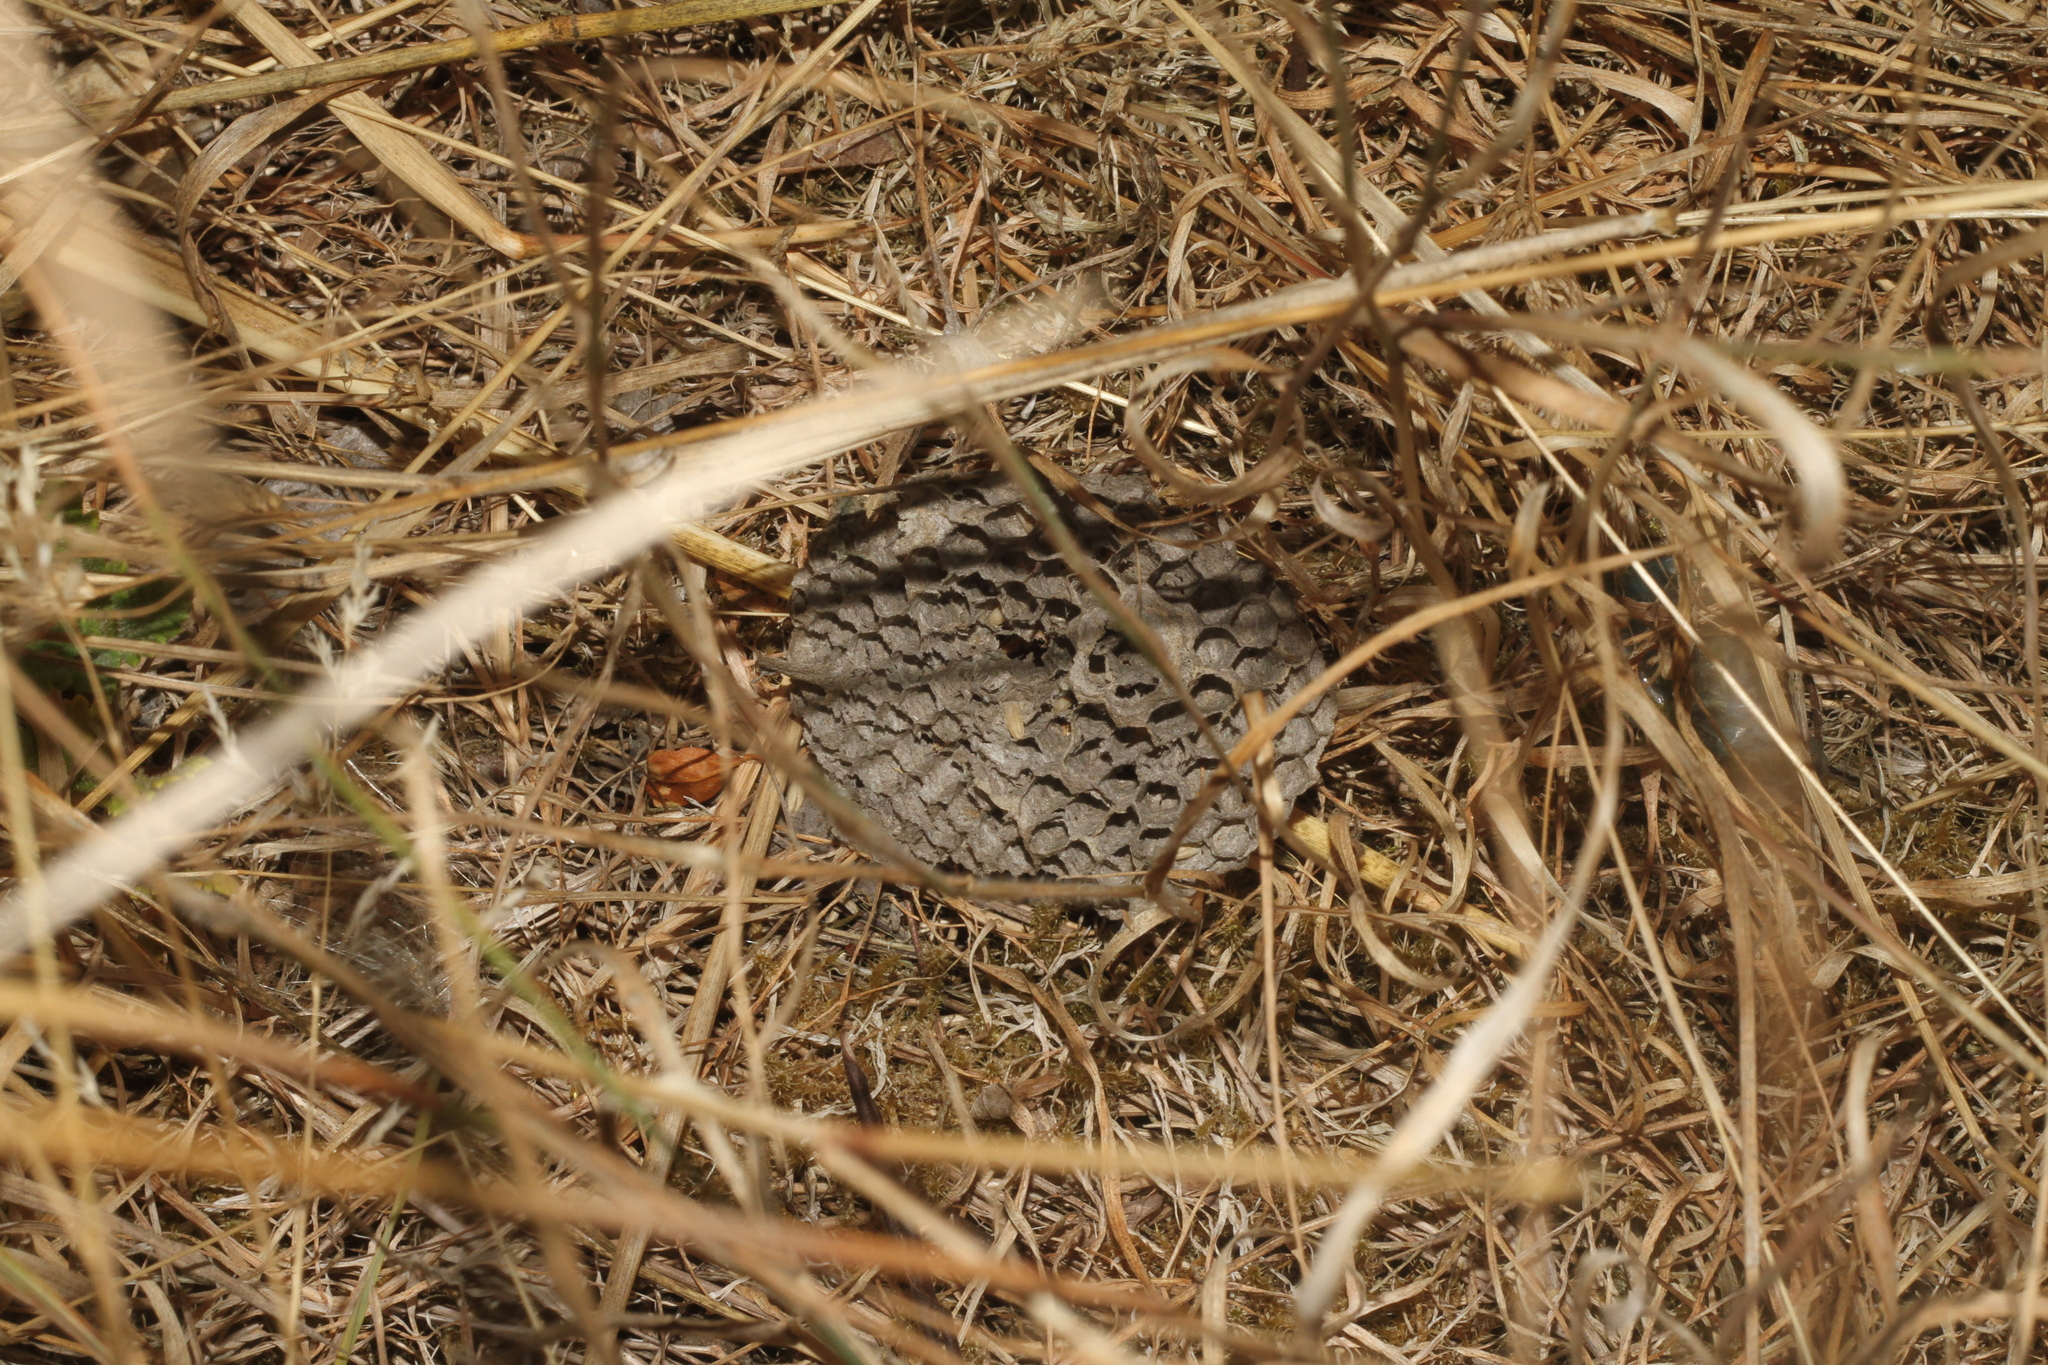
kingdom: Animalia
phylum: Arthropoda
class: Insecta
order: Hymenoptera
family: Vespidae
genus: Vespula
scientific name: Vespula germanica
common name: German wasp
